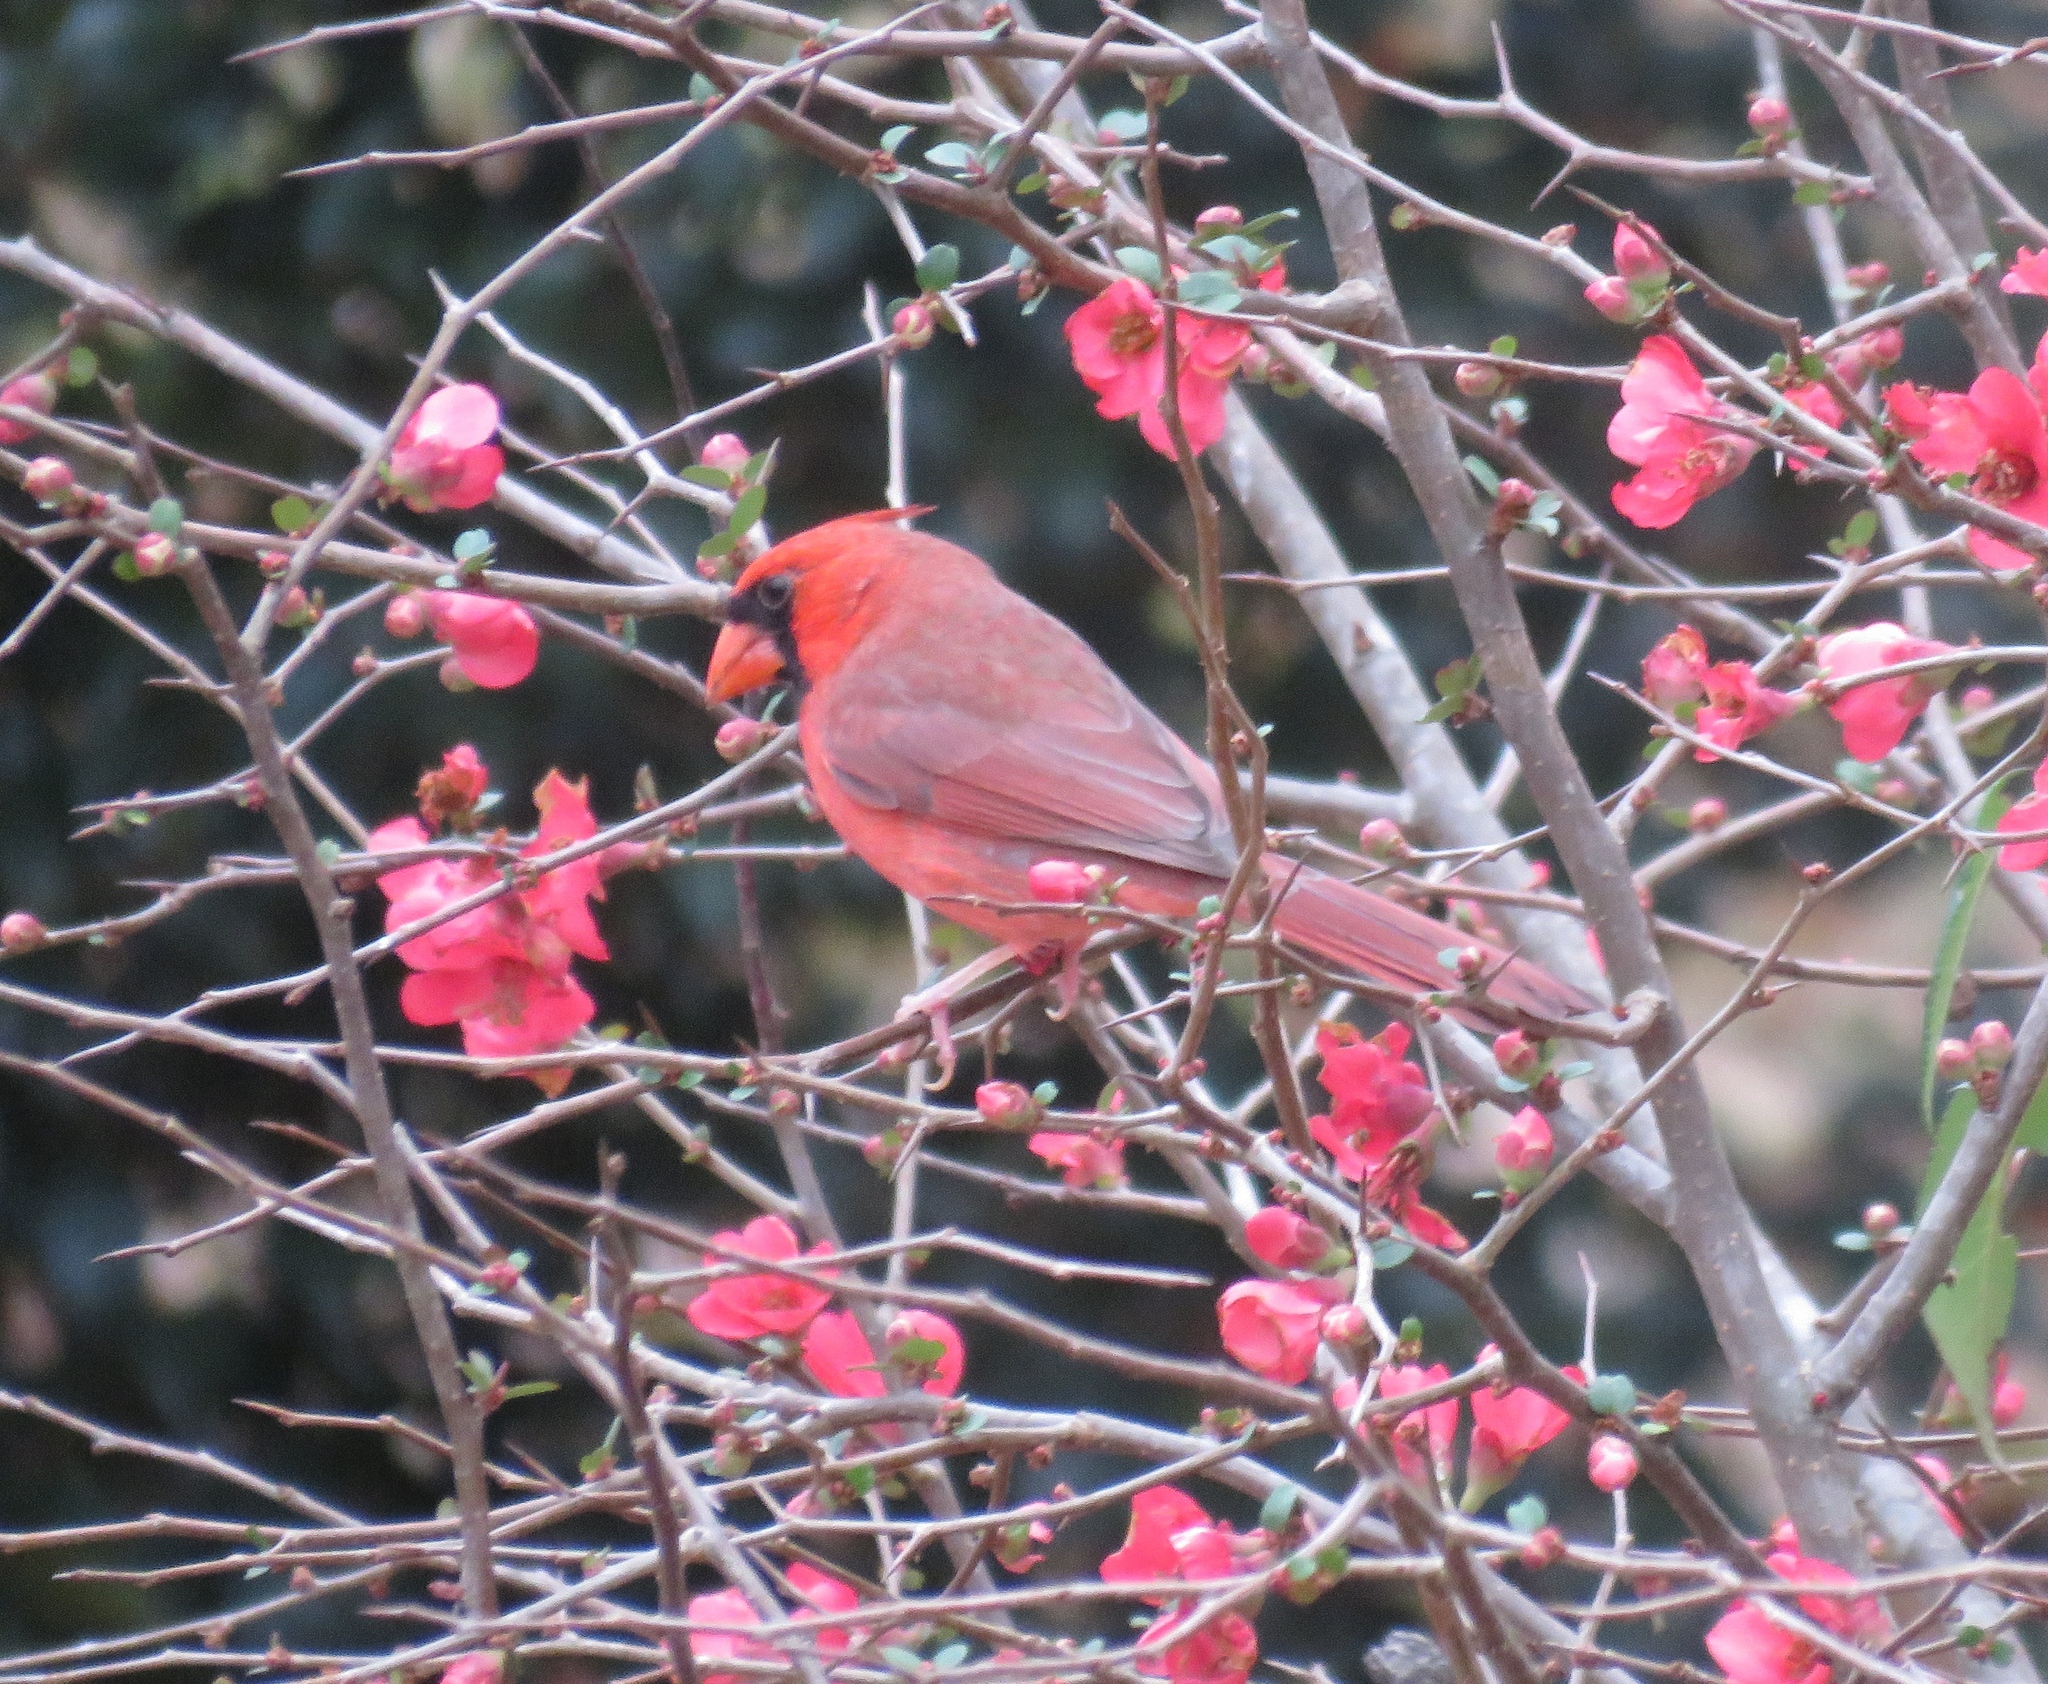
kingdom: Animalia
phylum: Chordata
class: Aves
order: Passeriformes
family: Cardinalidae
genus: Cardinalis
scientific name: Cardinalis cardinalis
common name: Northern cardinal
